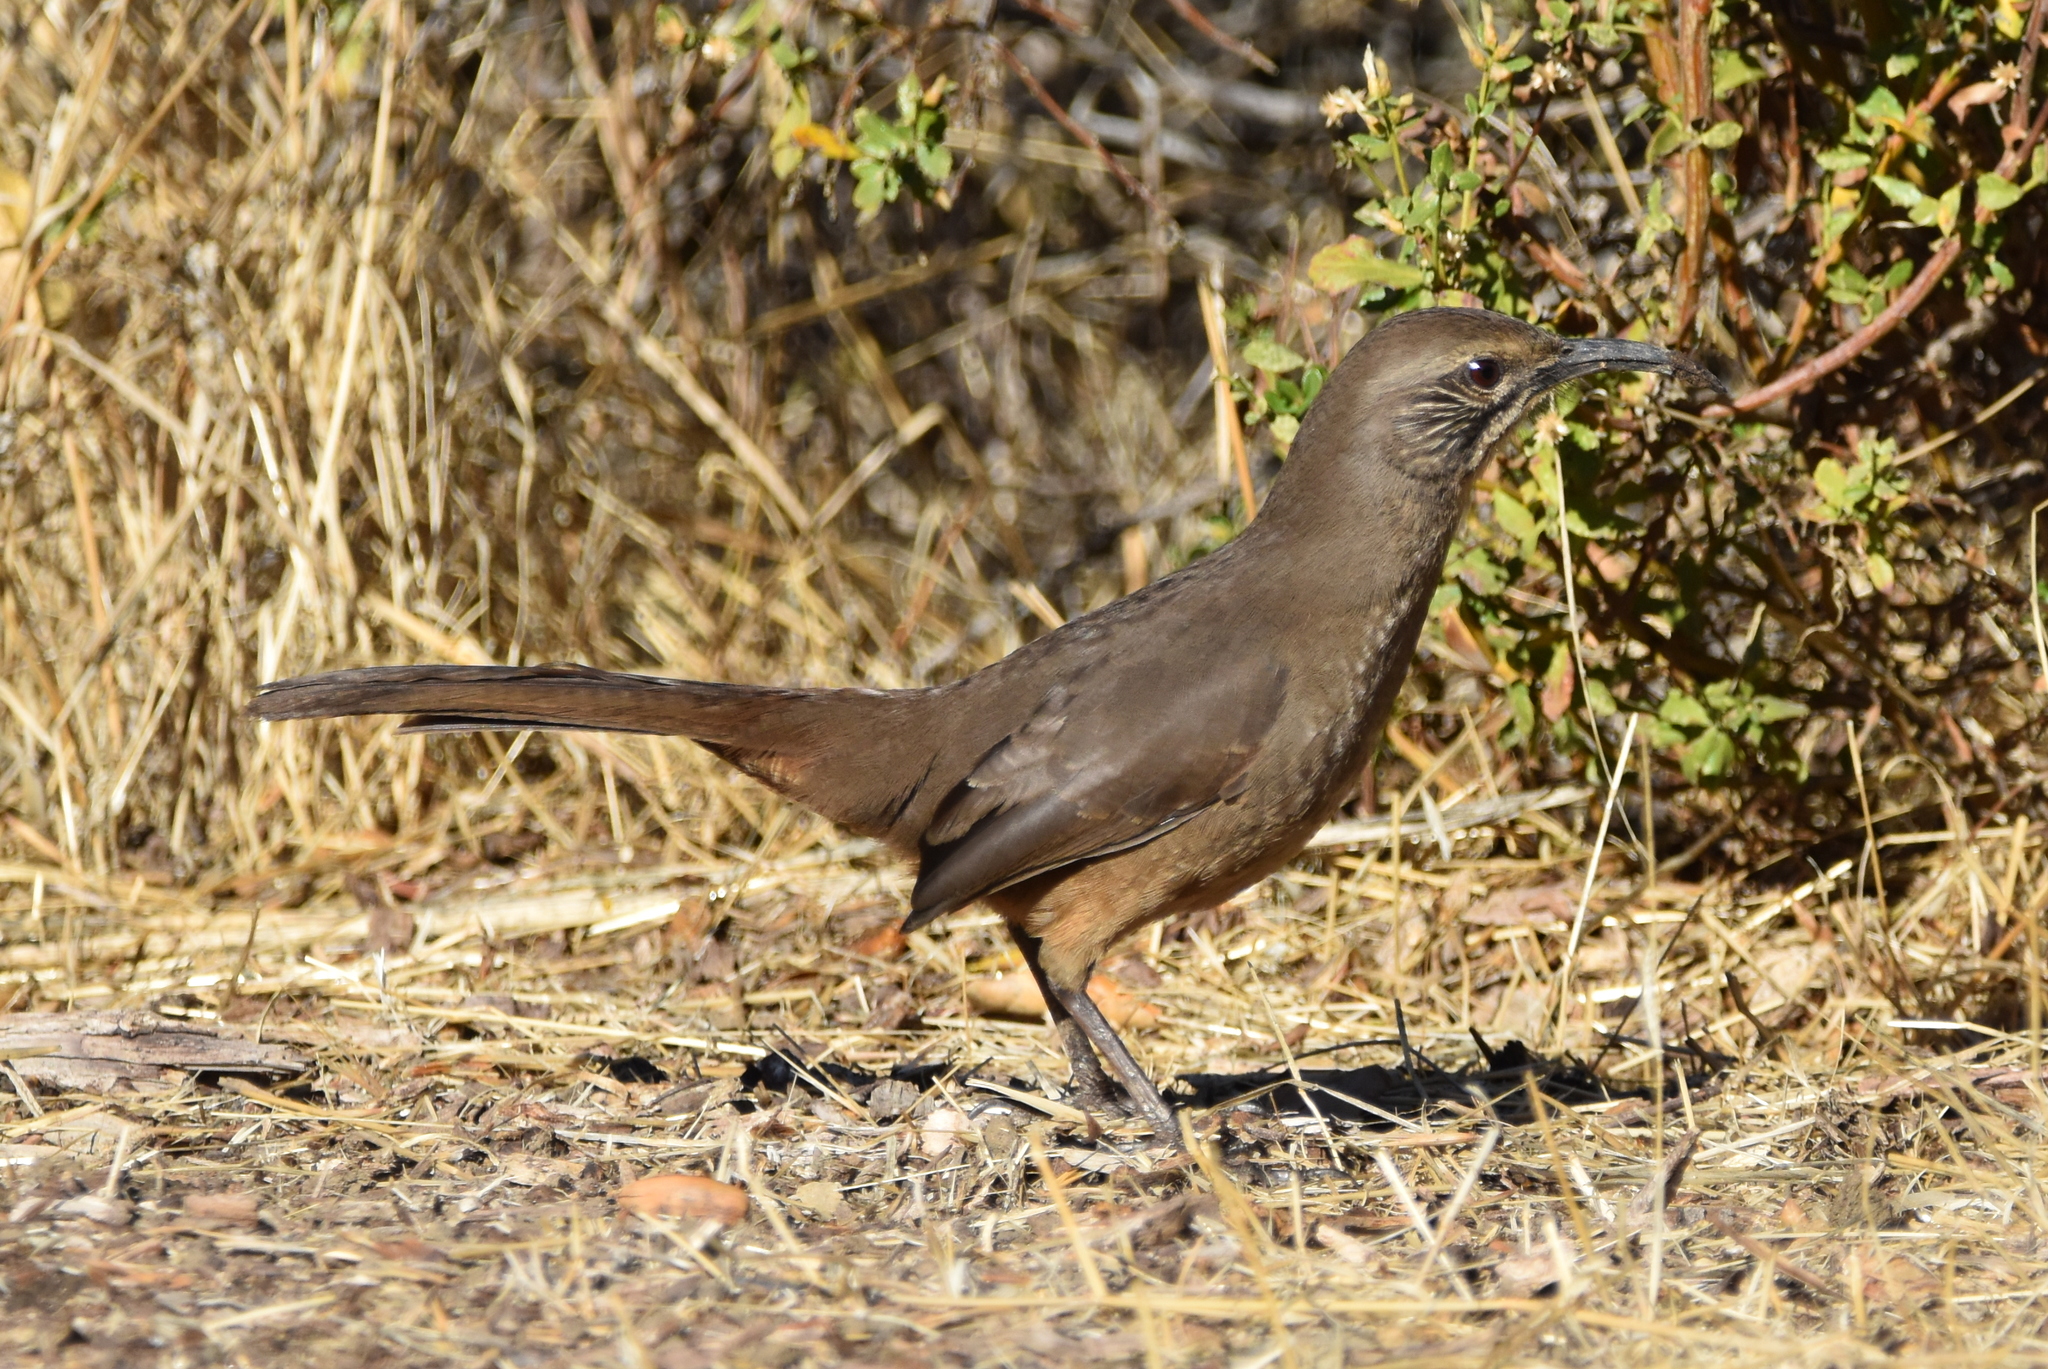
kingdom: Animalia
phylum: Chordata
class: Aves
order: Passeriformes
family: Mimidae
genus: Toxostoma
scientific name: Toxostoma redivivum
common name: California thrasher
